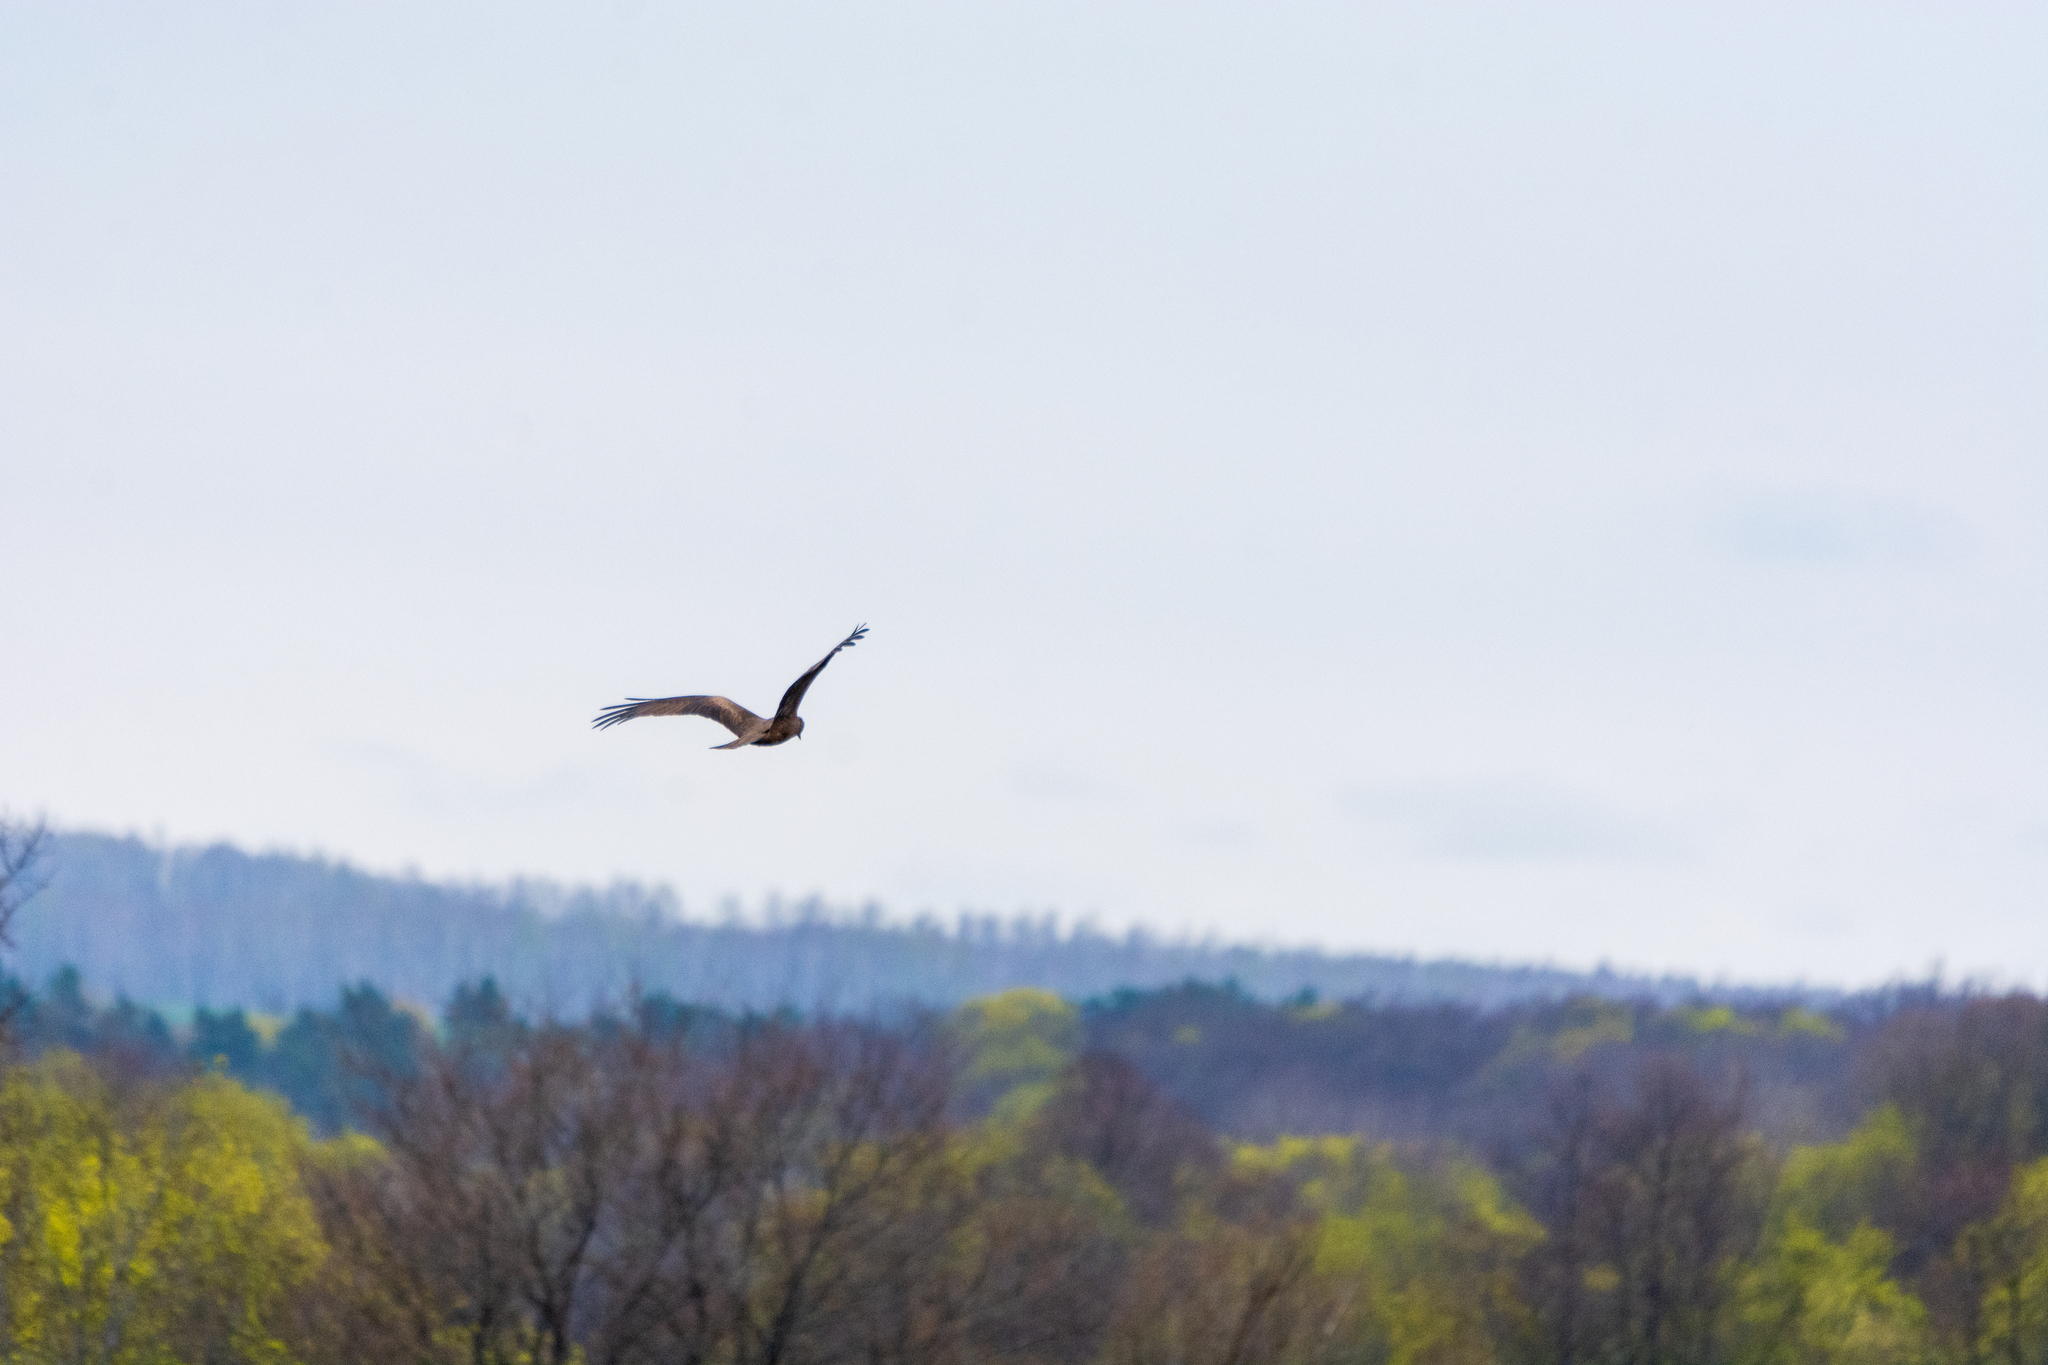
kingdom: Animalia
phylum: Chordata
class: Aves
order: Accipitriformes
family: Accipitridae
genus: Milvus
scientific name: Milvus migrans
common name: Black kite
